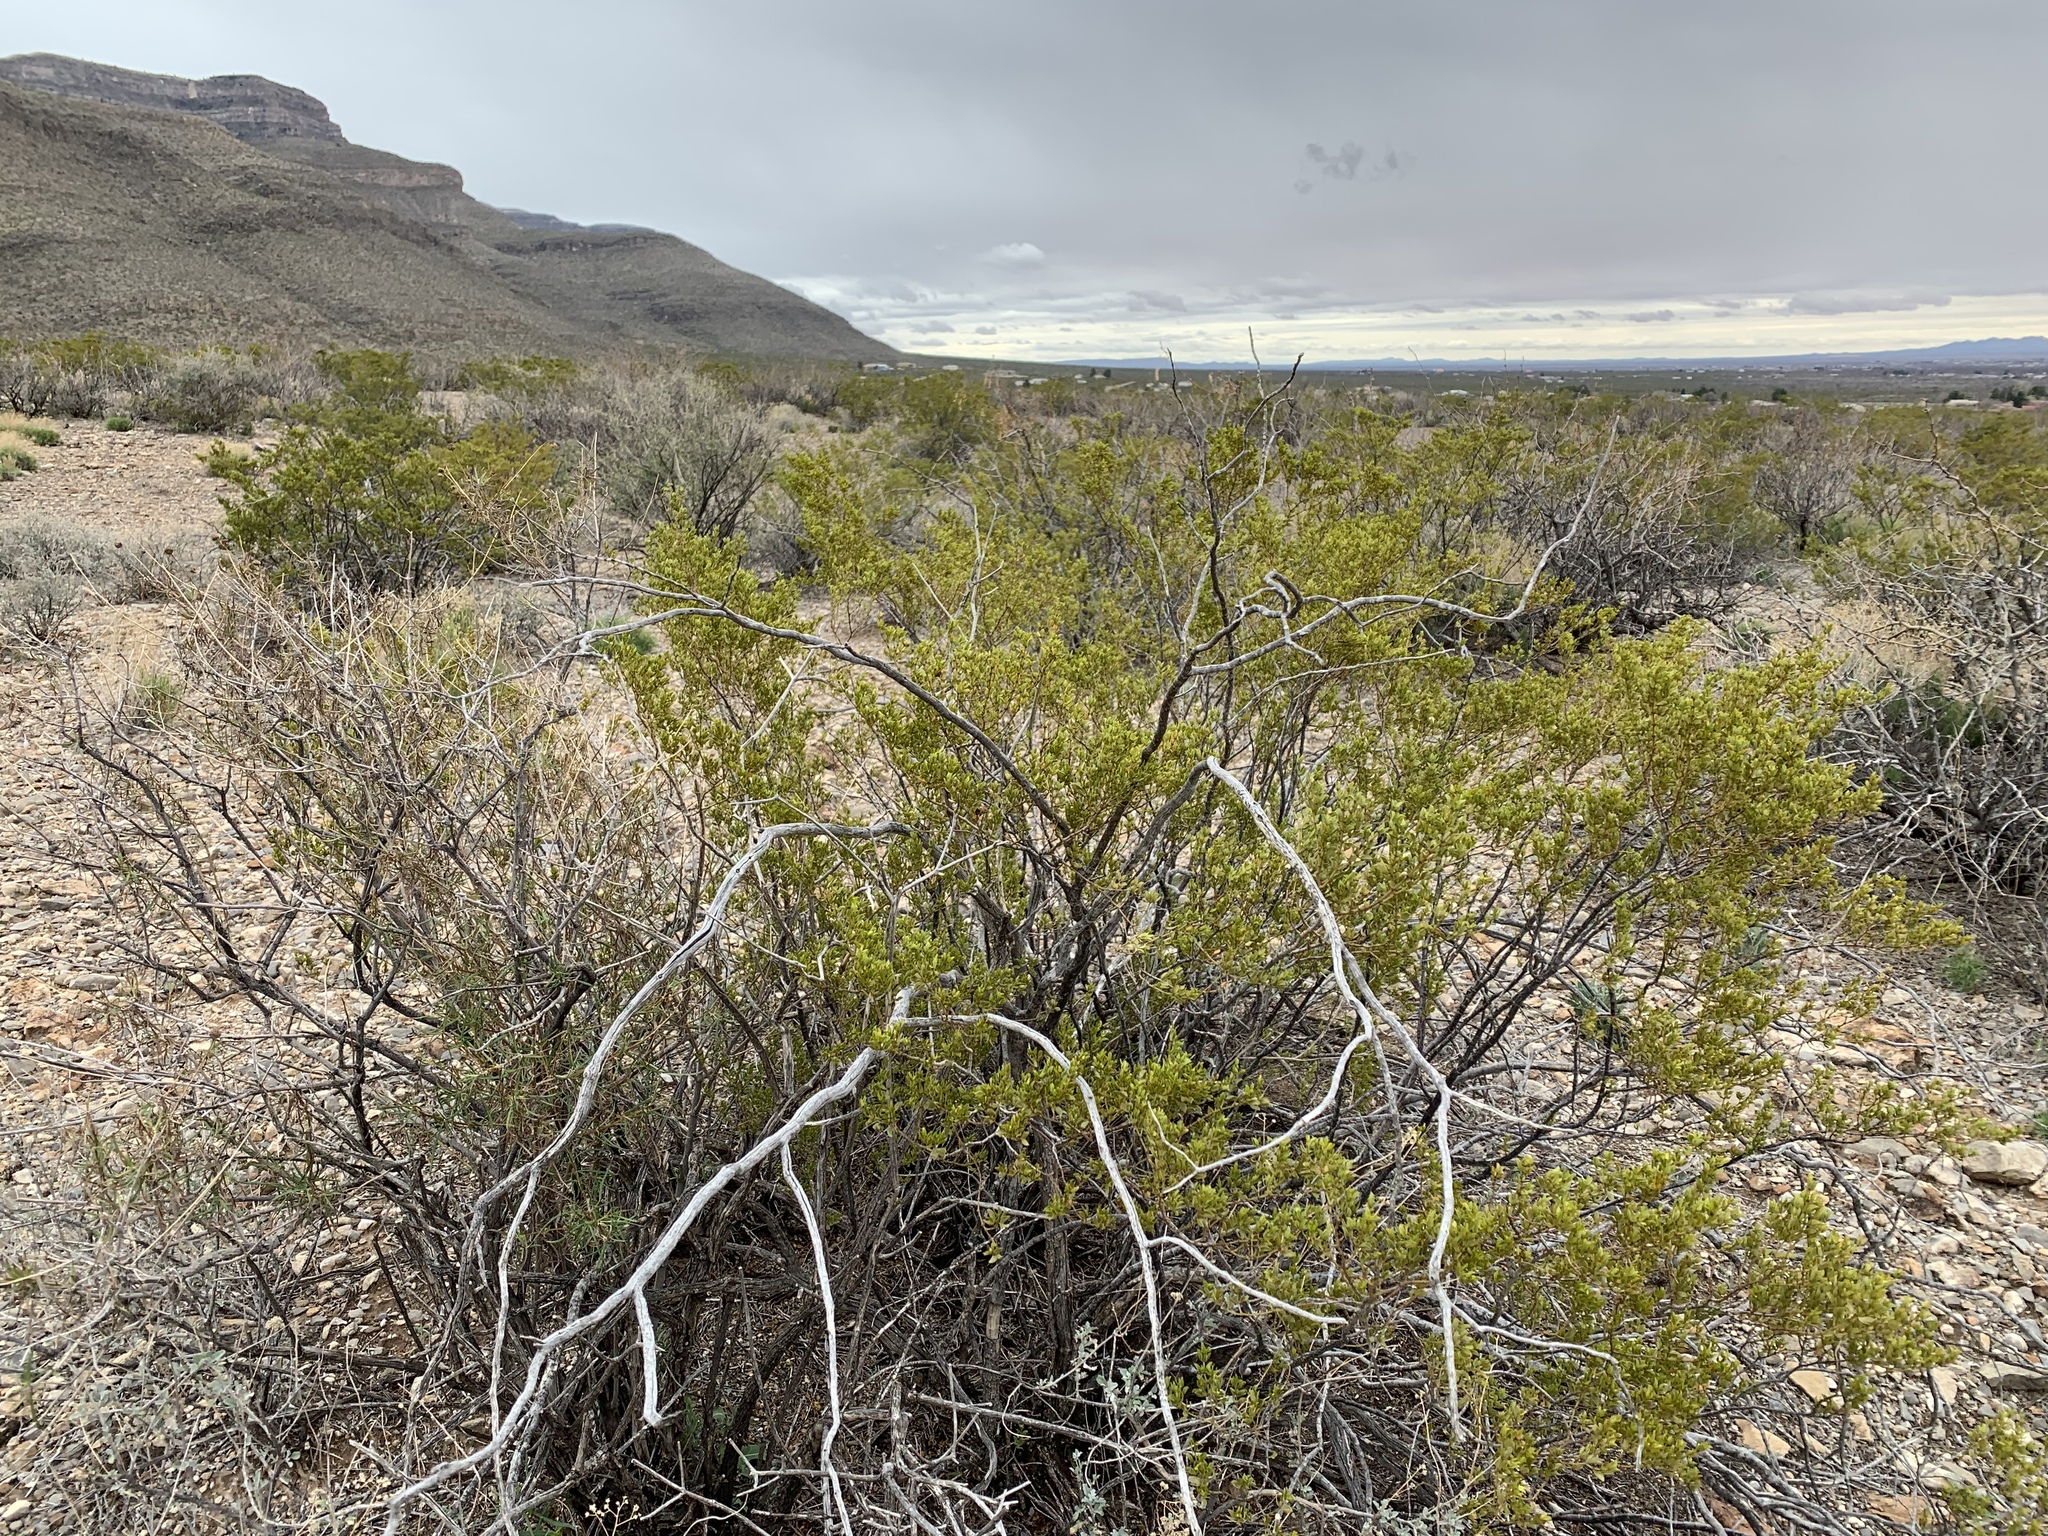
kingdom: Plantae
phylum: Tracheophyta
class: Magnoliopsida
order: Zygophyllales
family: Zygophyllaceae
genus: Larrea
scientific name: Larrea tridentata
